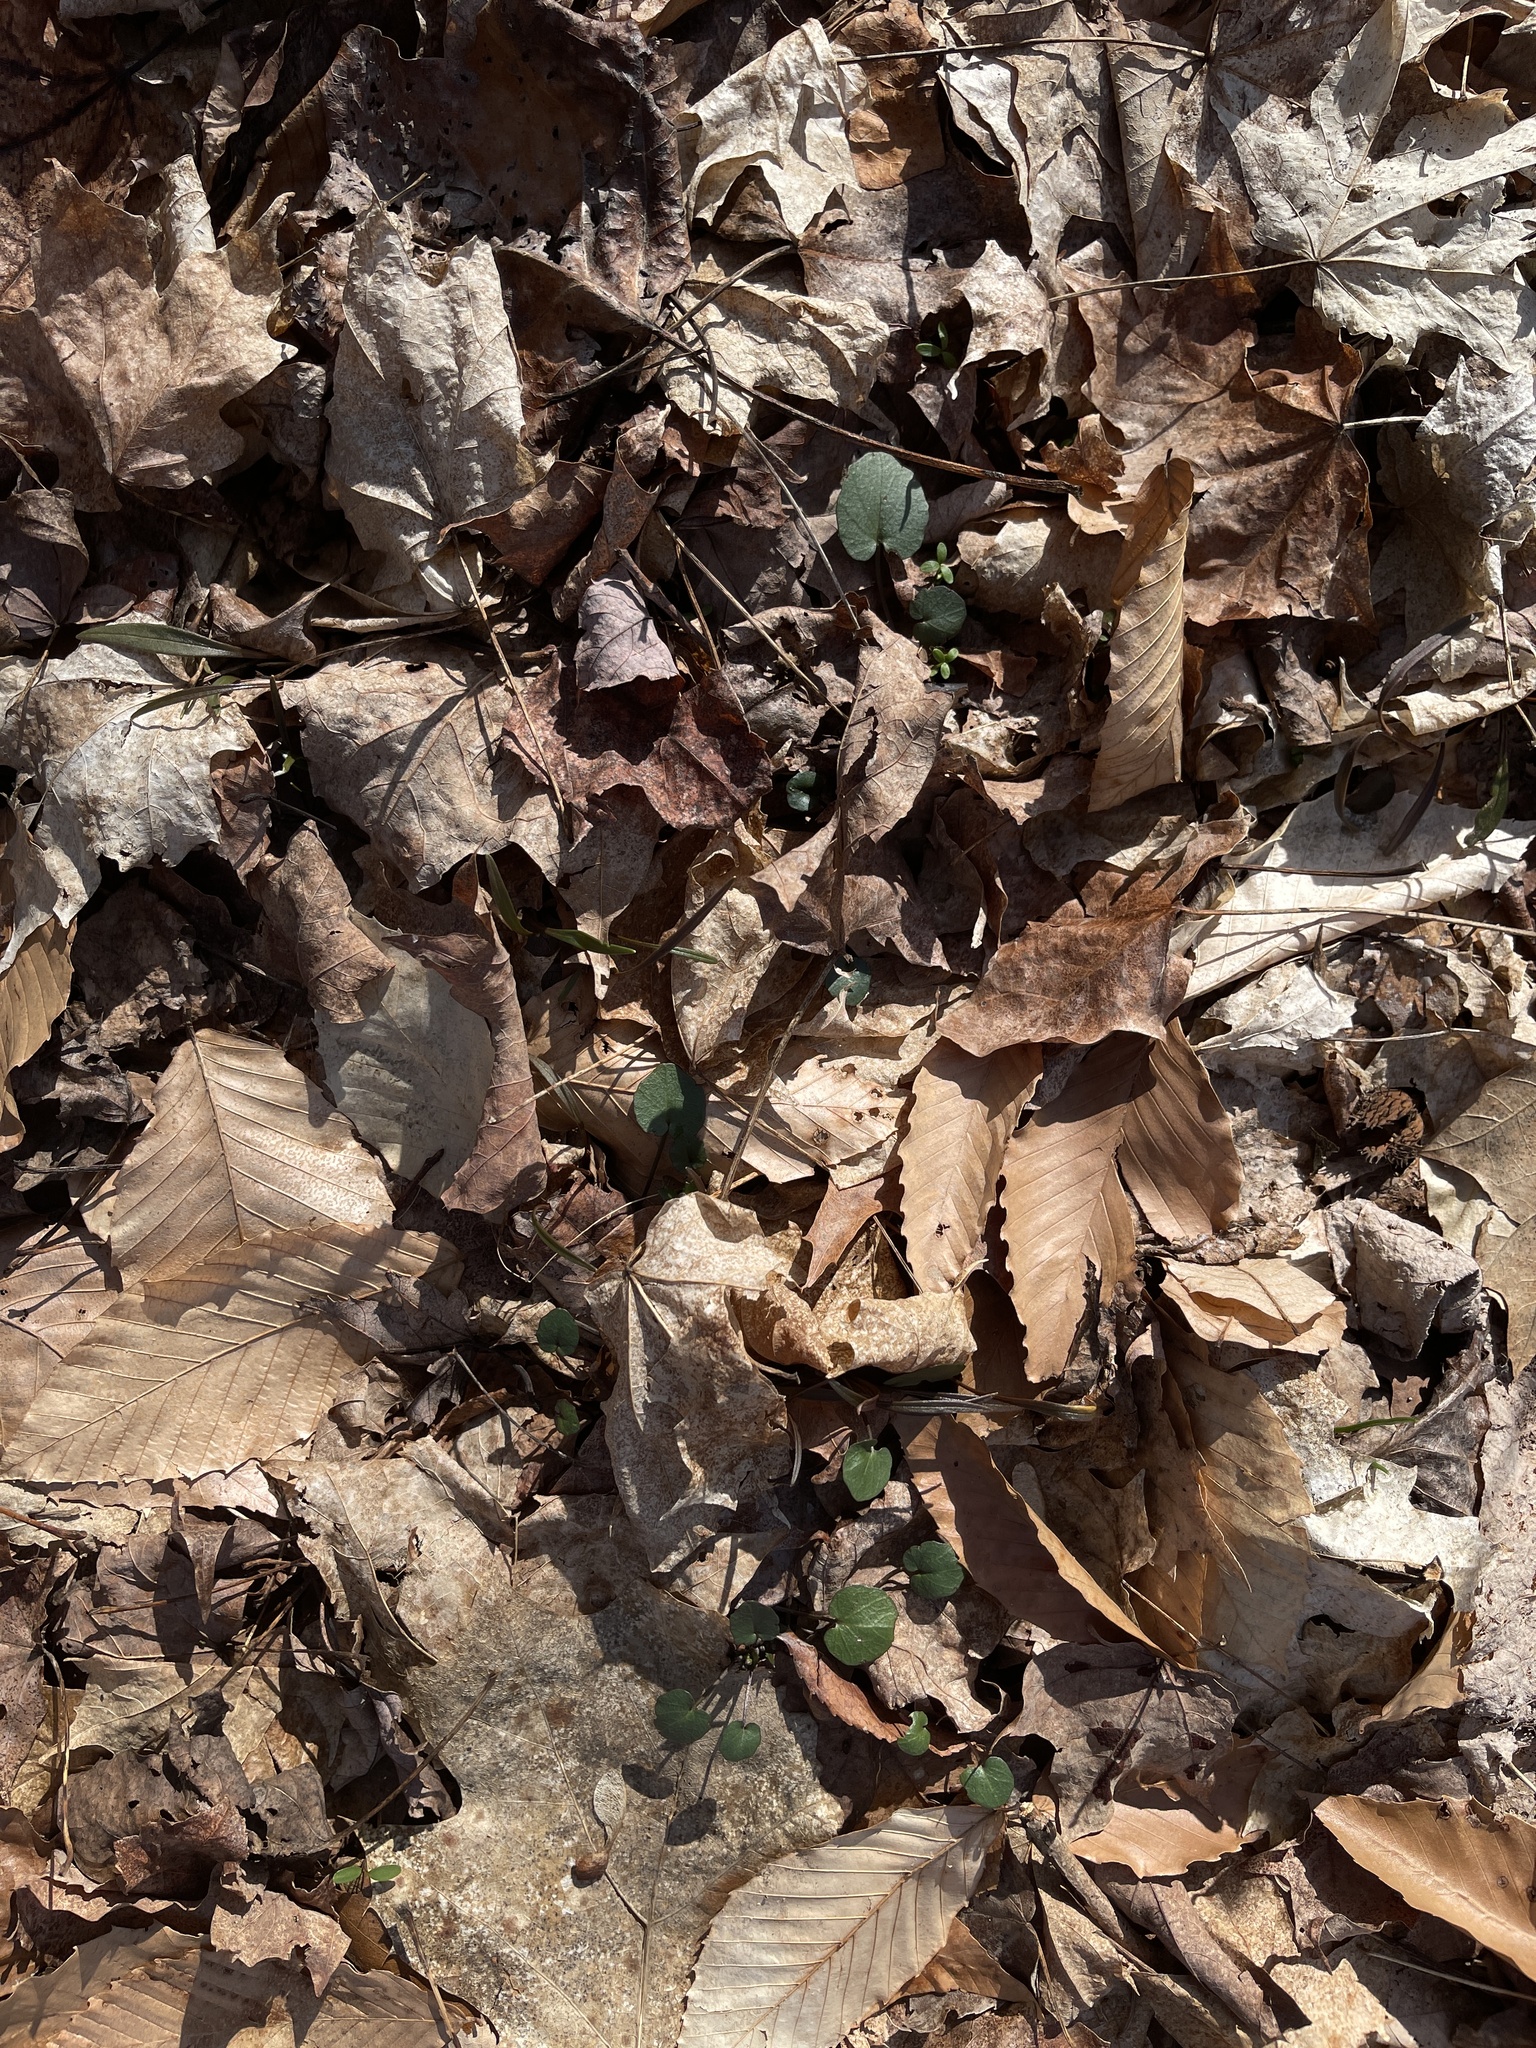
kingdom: Plantae
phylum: Tracheophyta
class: Magnoliopsida
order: Brassicales
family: Brassicaceae
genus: Cardamine
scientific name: Cardamine douglassii
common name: Purple cress
